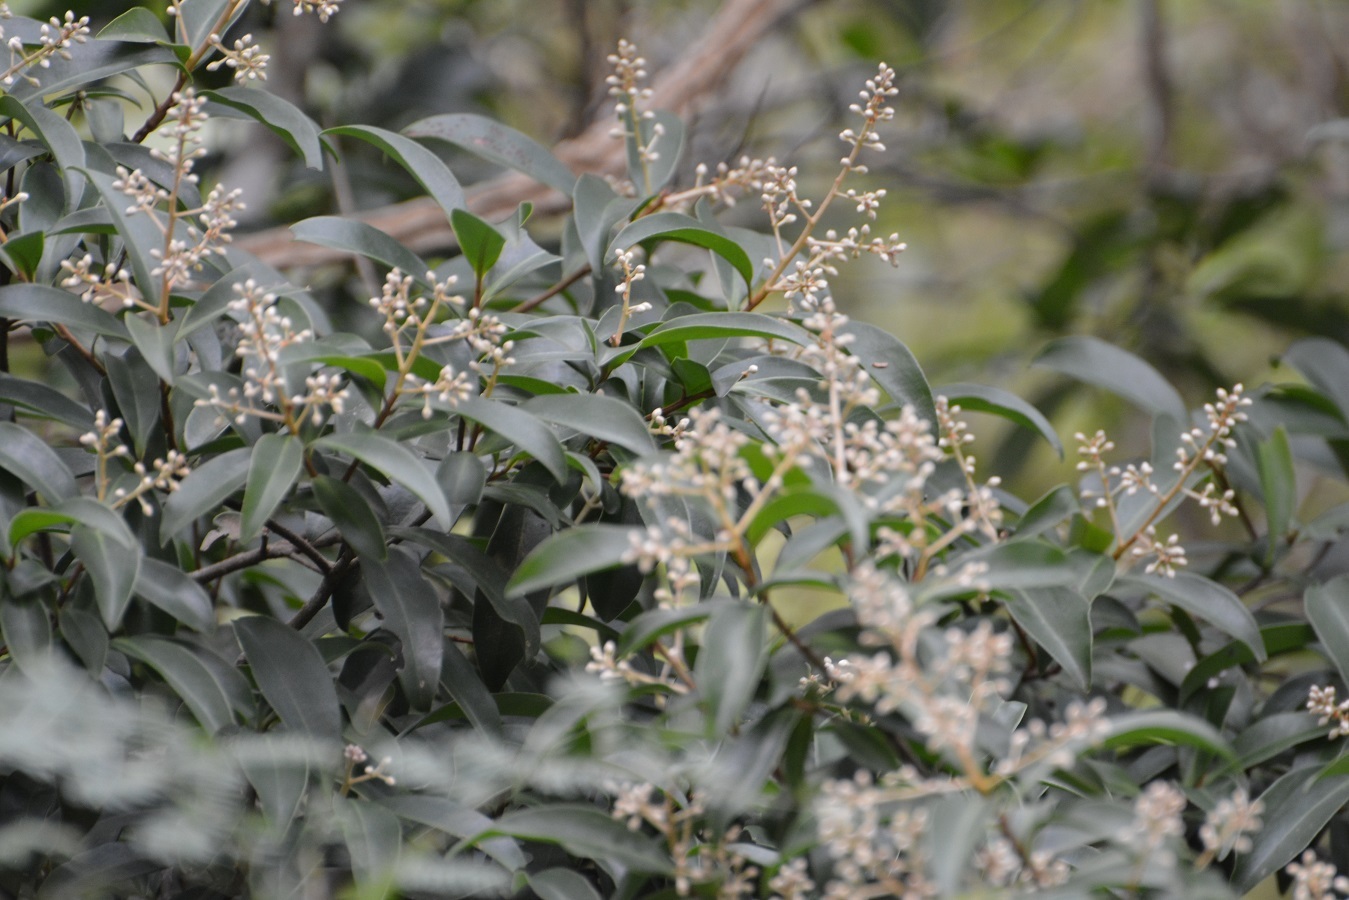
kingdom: Plantae
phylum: Tracheophyta
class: Magnoliopsida
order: Ericales
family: Primulaceae
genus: Ardisia
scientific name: Ardisia escallonioides
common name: Island marlberry
